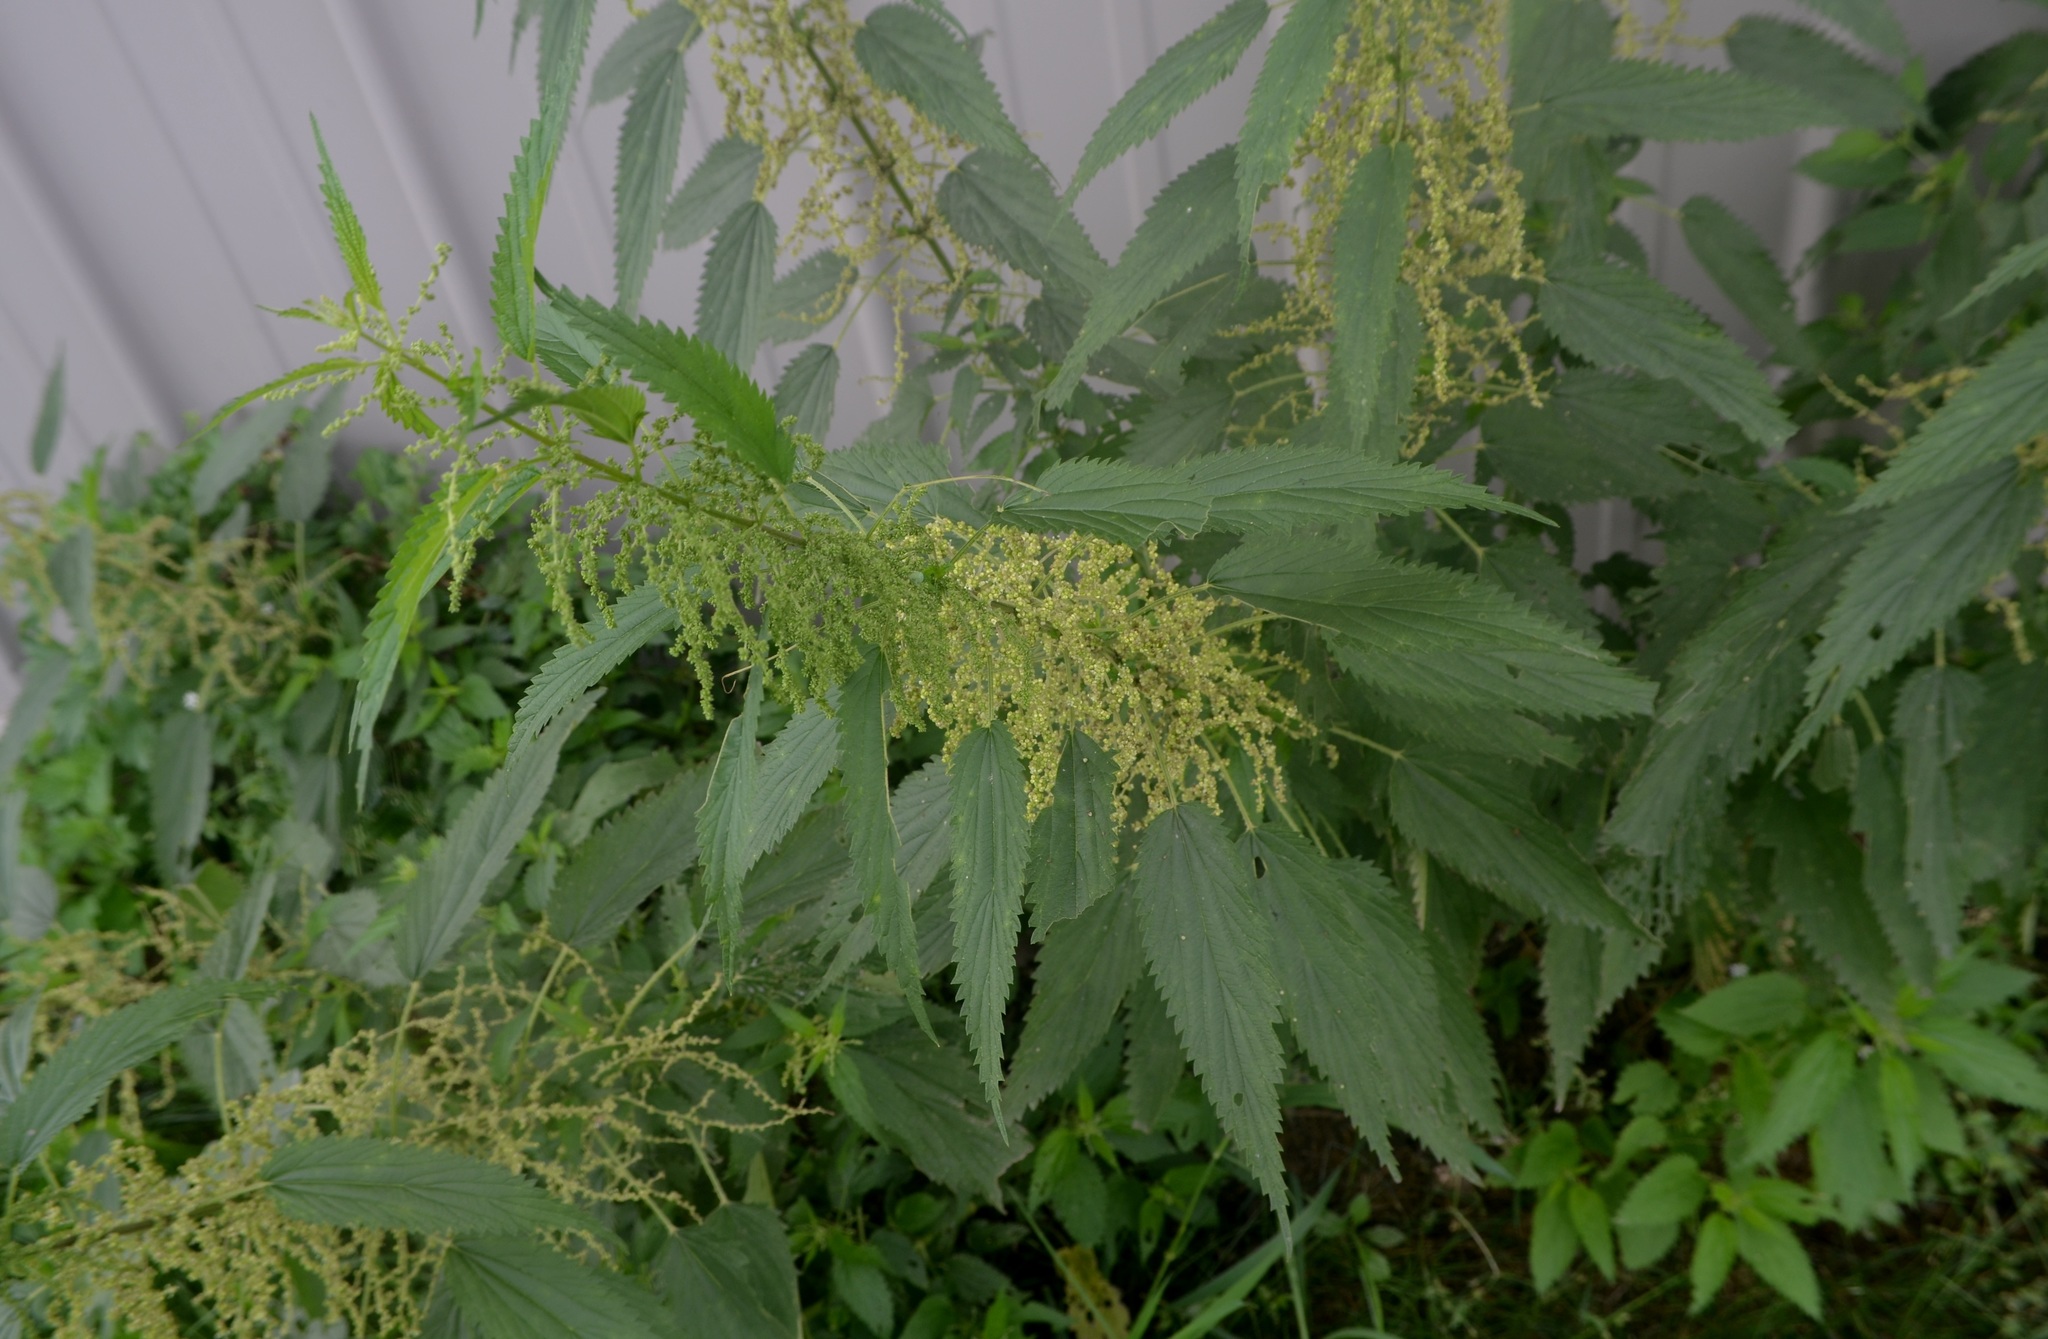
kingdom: Plantae
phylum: Tracheophyta
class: Magnoliopsida
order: Rosales
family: Urticaceae
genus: Urtica
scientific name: Urtica gracilis
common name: Slender stinging nettle
